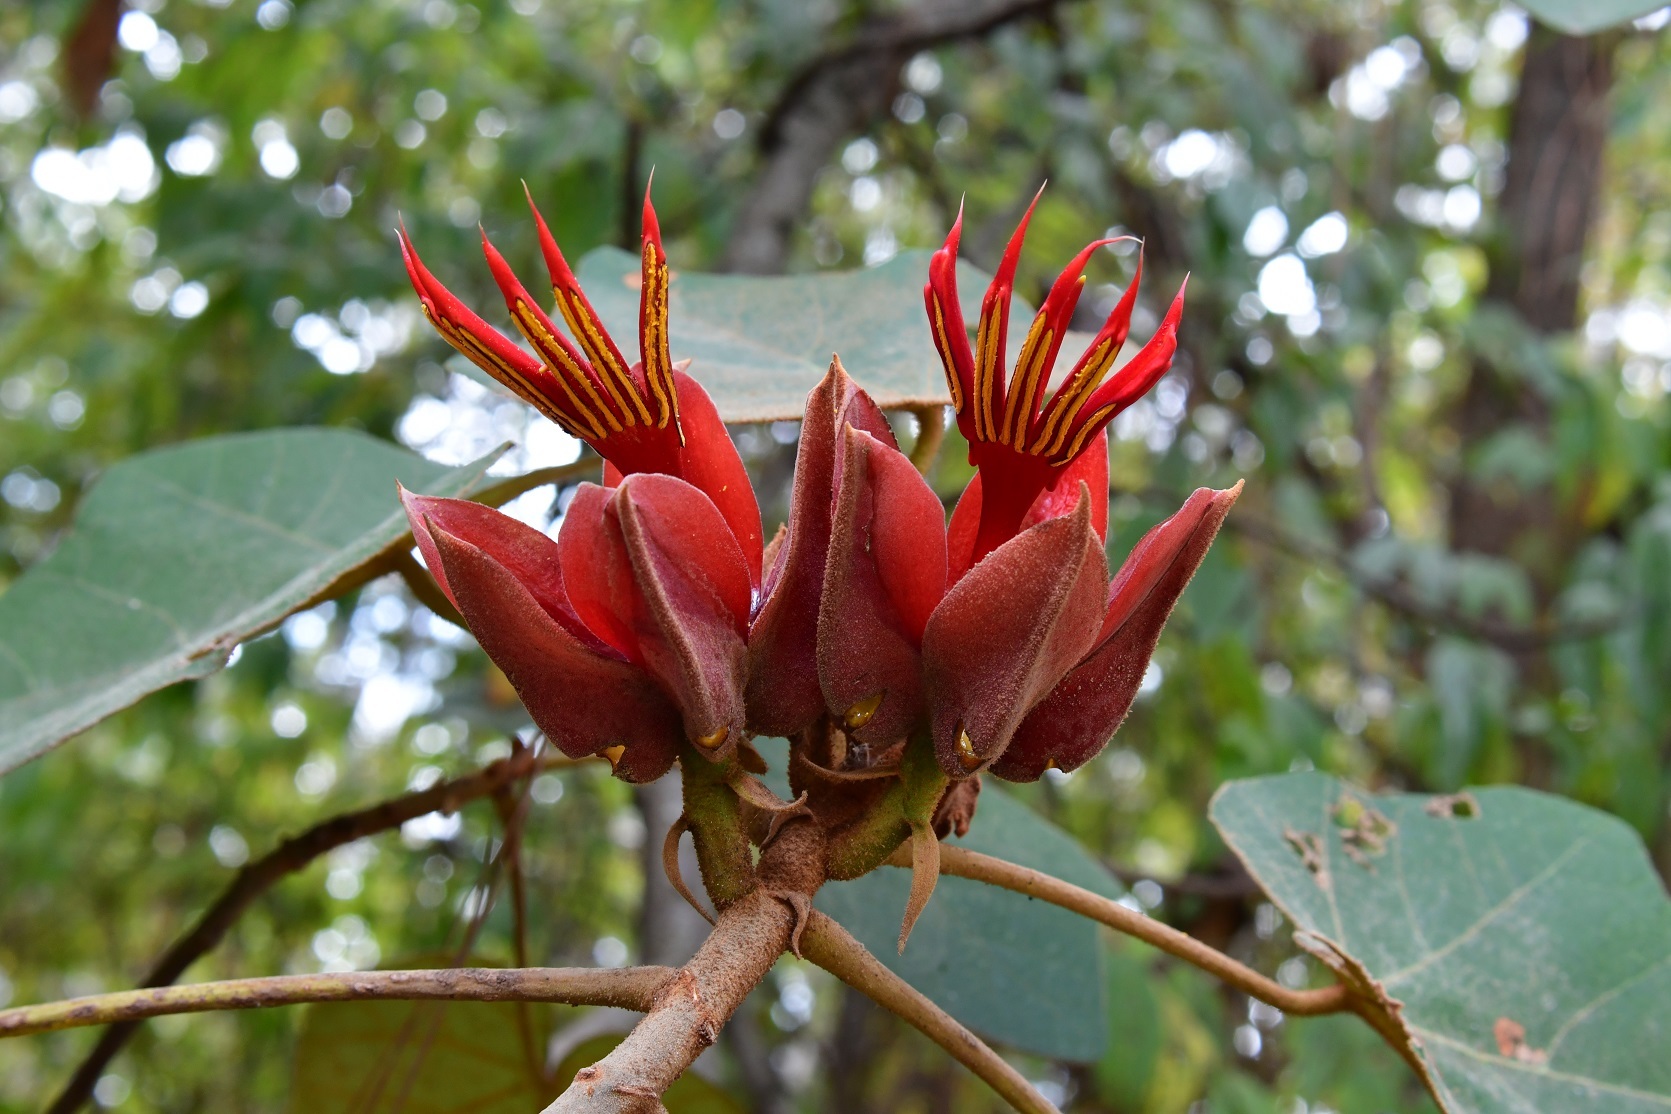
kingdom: Plantae
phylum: Tracheophyta
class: Magnoliopsida
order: Malvales
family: Malvaceae
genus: Chiranthodendron
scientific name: Chiranthodendron pentadactylon
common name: Mexican-hat-plant
